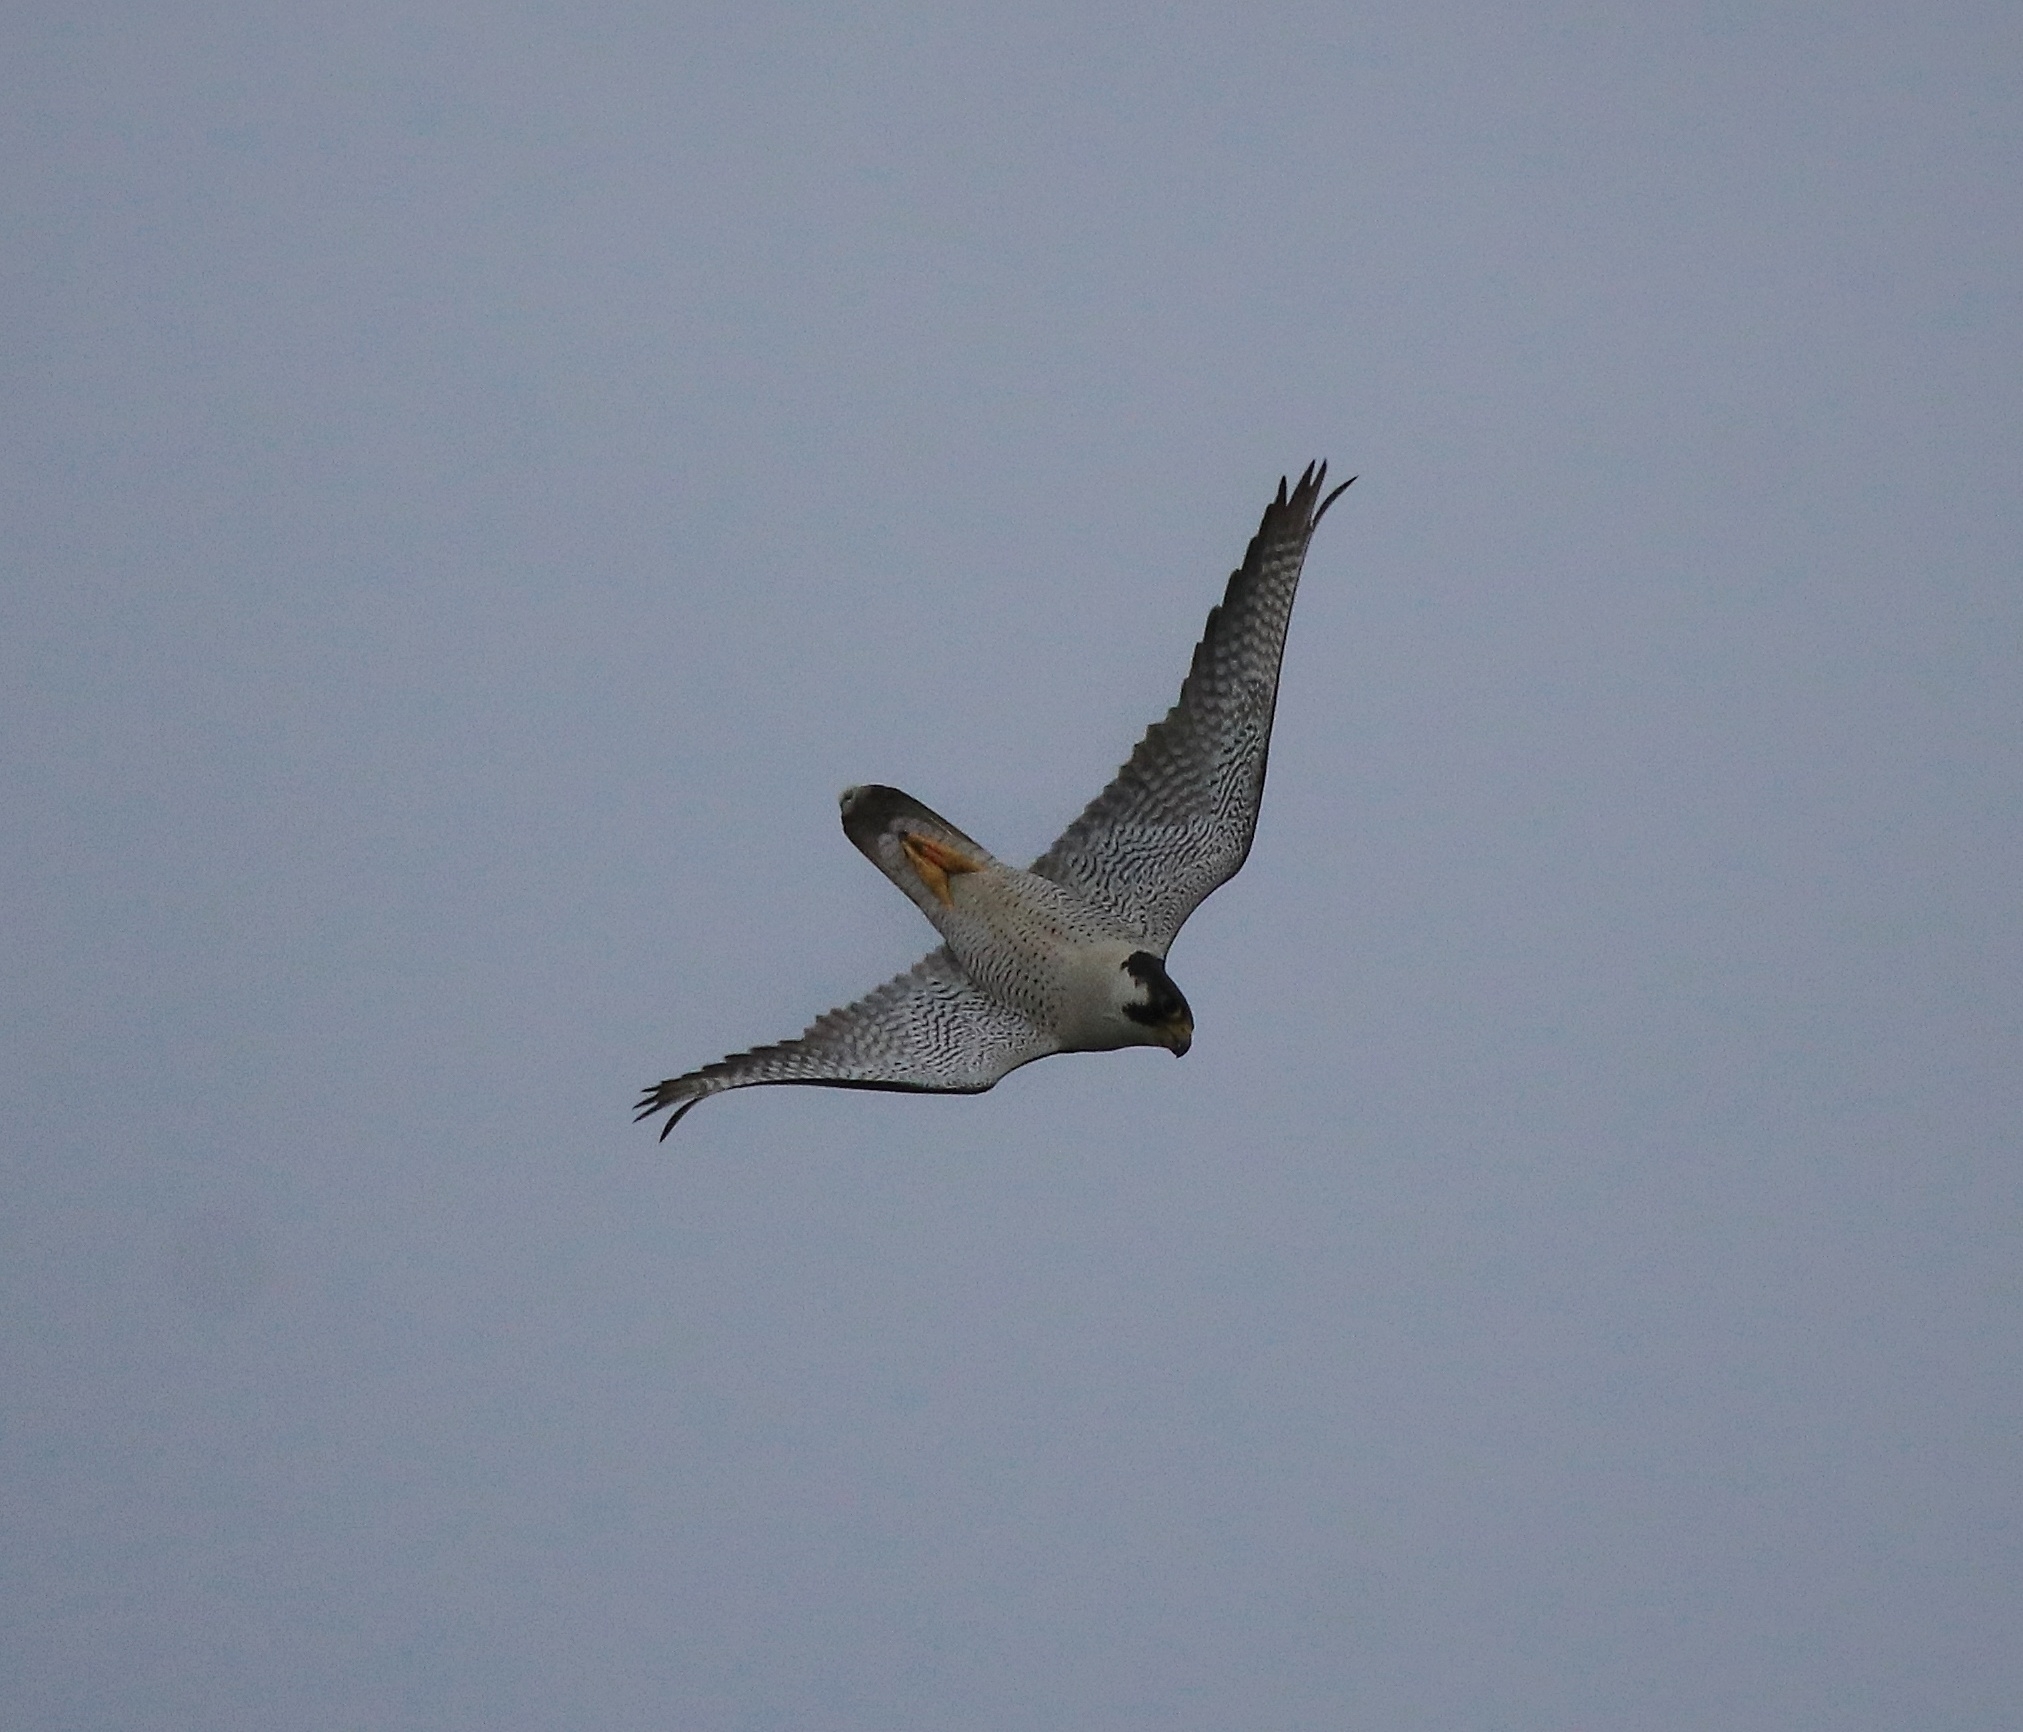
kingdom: Animalia
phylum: Chordata
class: Aves
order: Falconiformes
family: Falconidae
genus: Falco
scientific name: Falco peregrinus
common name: Peregrine falcon
